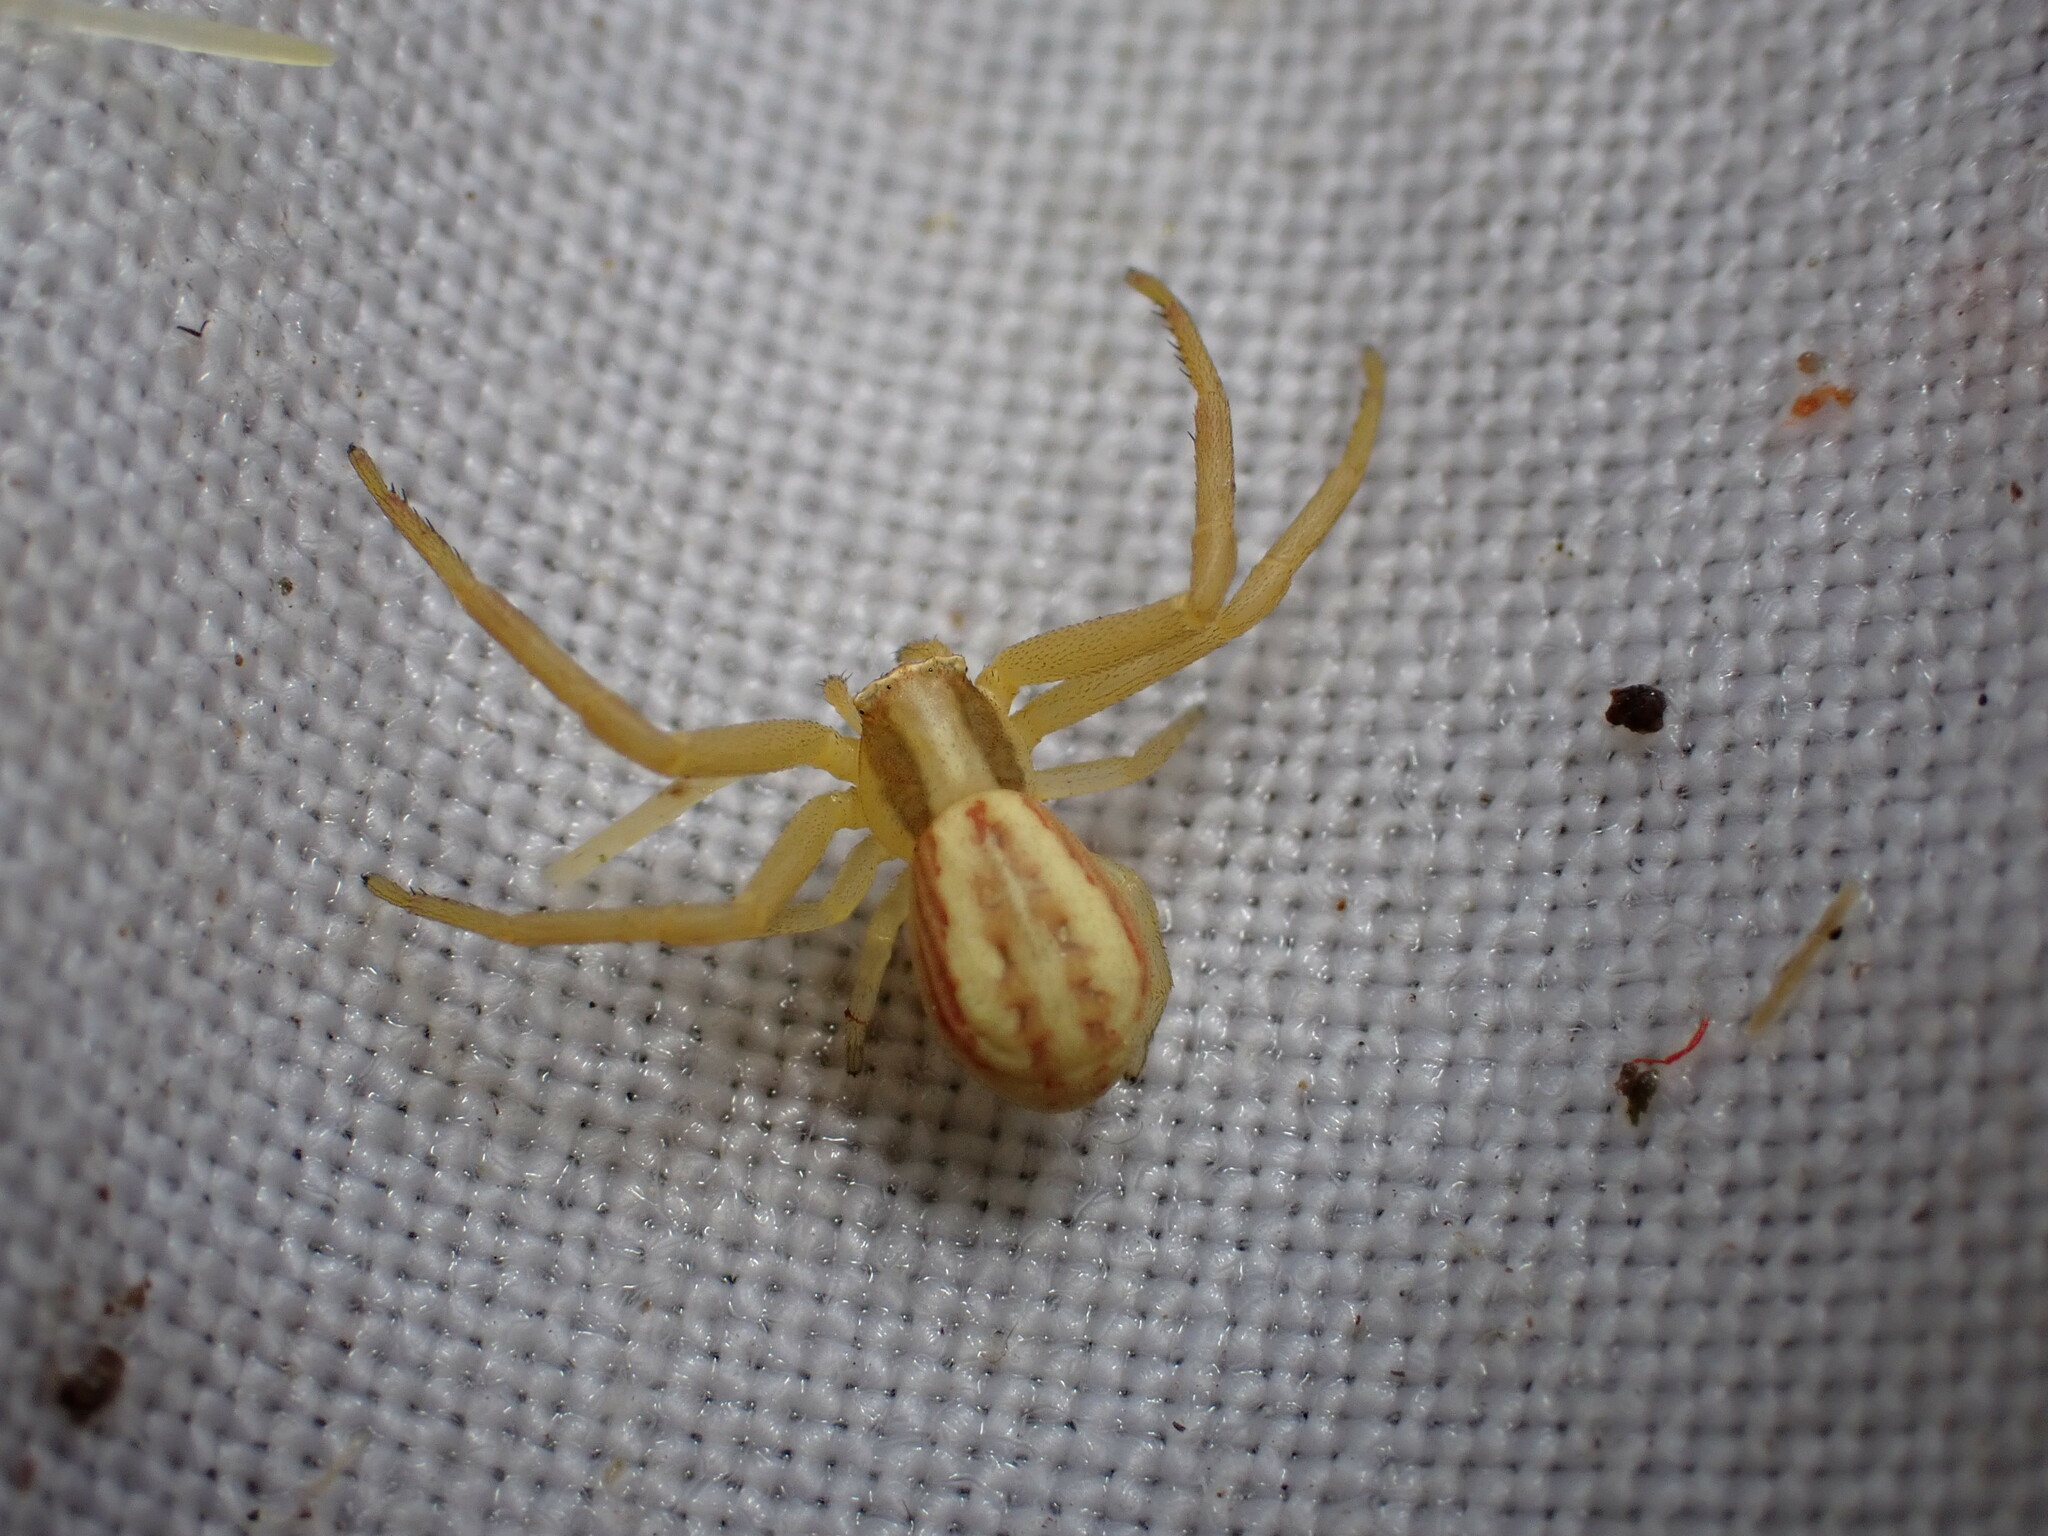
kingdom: Animalia
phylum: Arthropoda
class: Arachnida
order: Araneae
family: Thomisidae
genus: Runcinia
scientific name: Runcinia grammica
